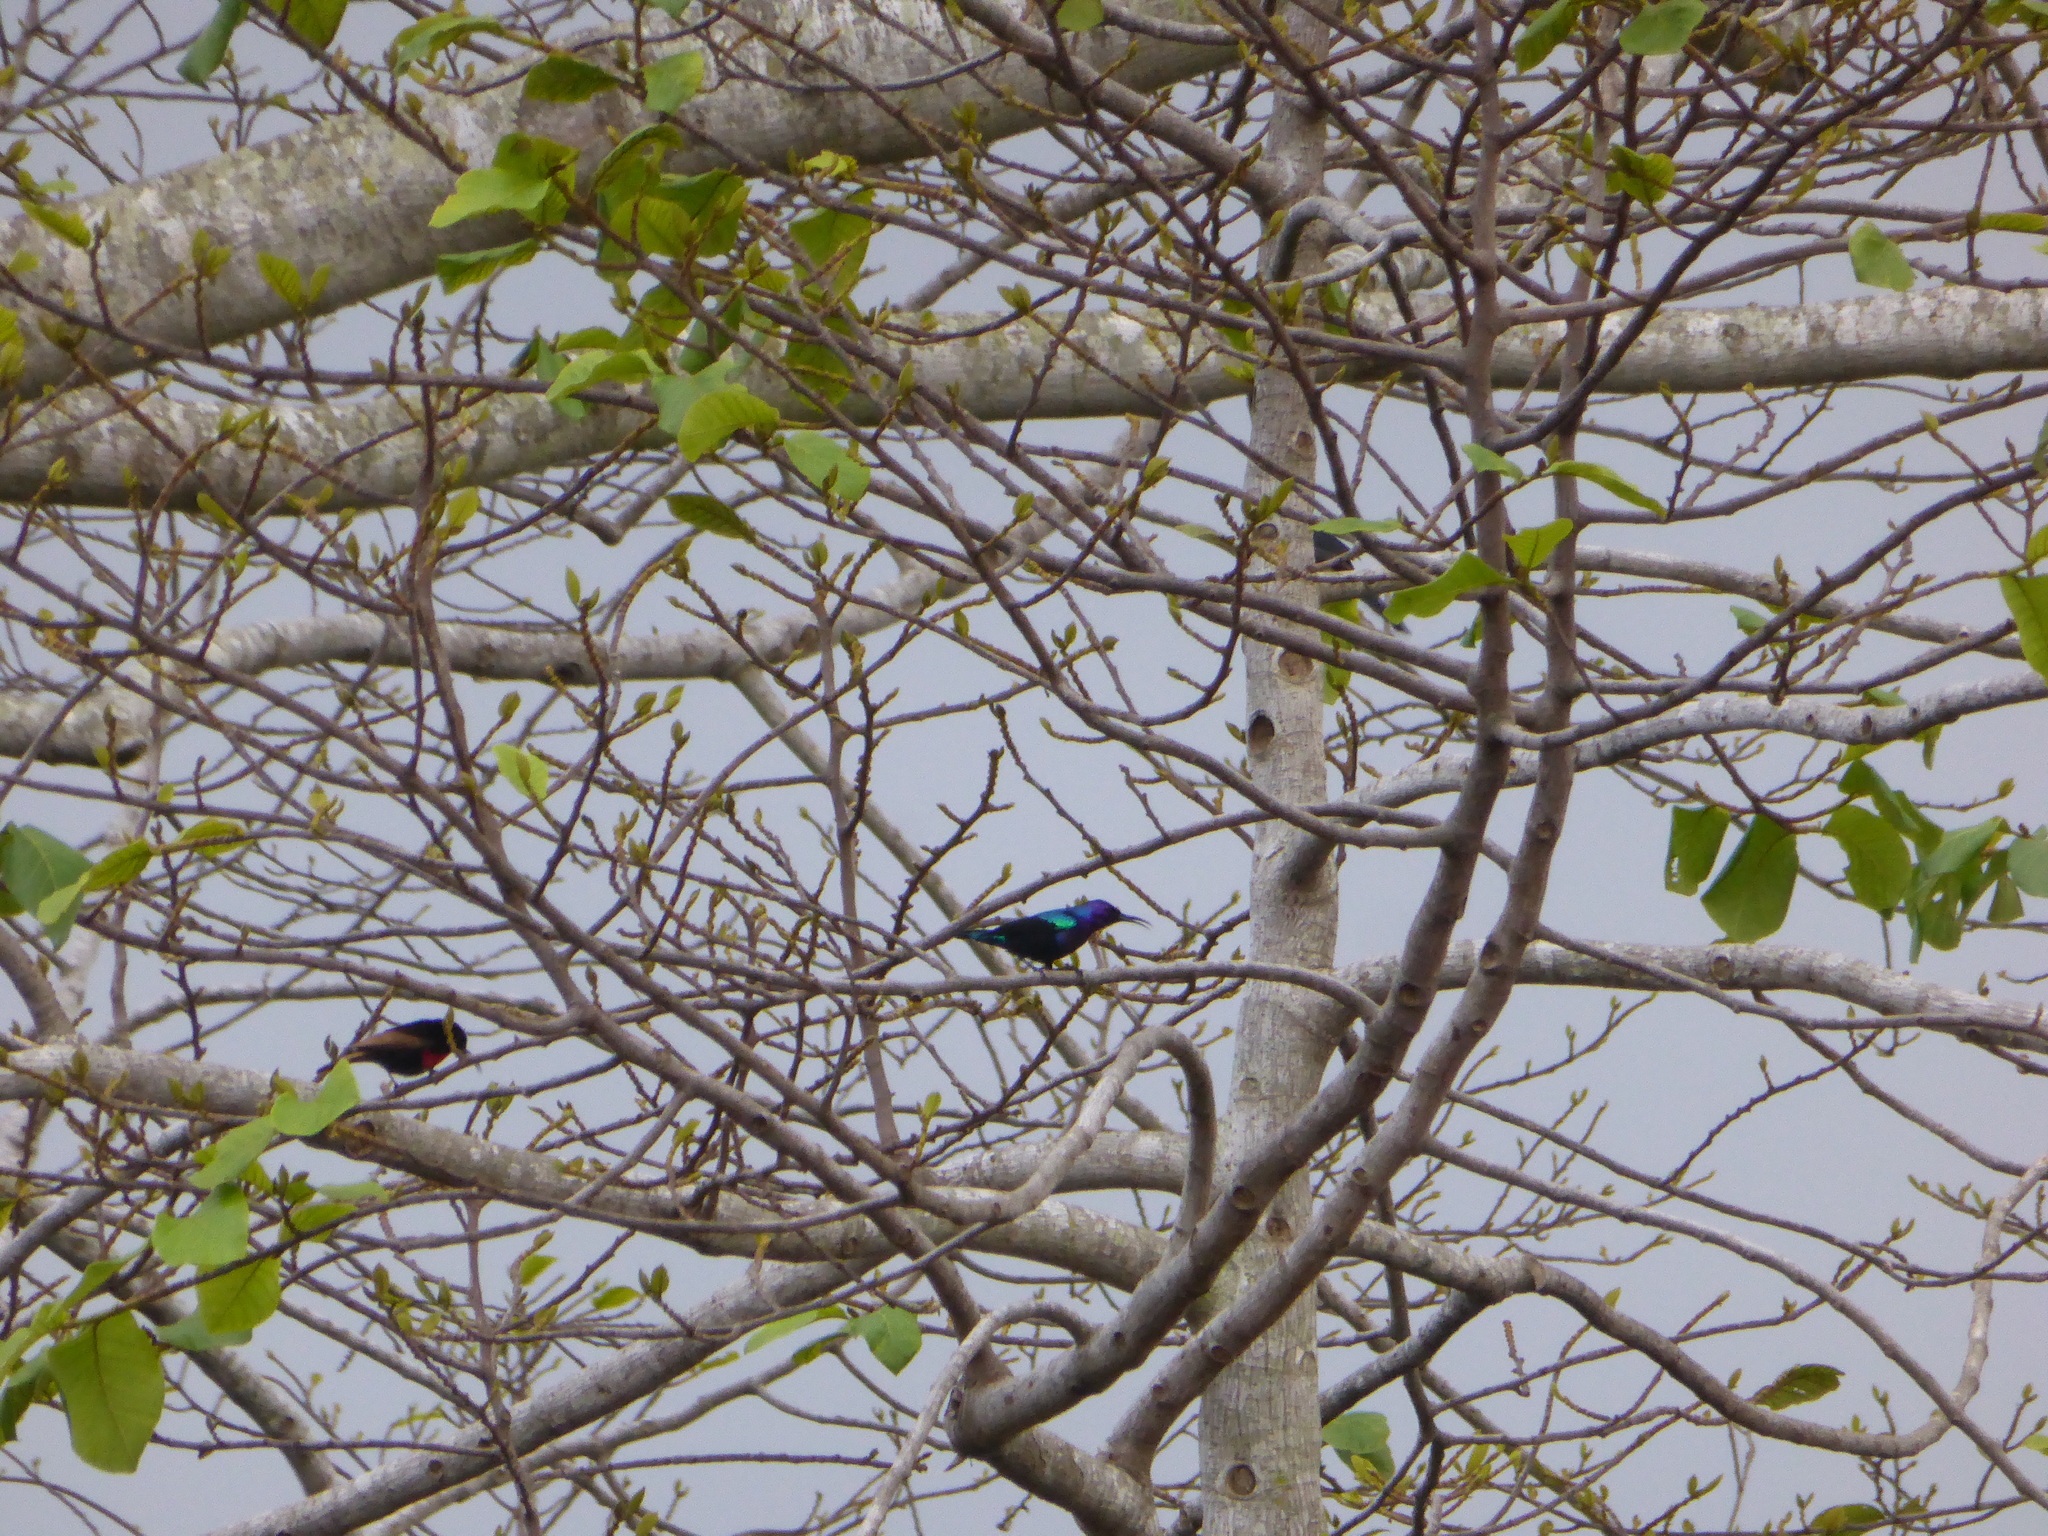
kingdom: Animalia
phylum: Chordata
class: Aves
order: Passeriformes
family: Nectariniidae
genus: Cinnyris
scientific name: Cinnyris coccinigastrus
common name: Splendid sunbird
